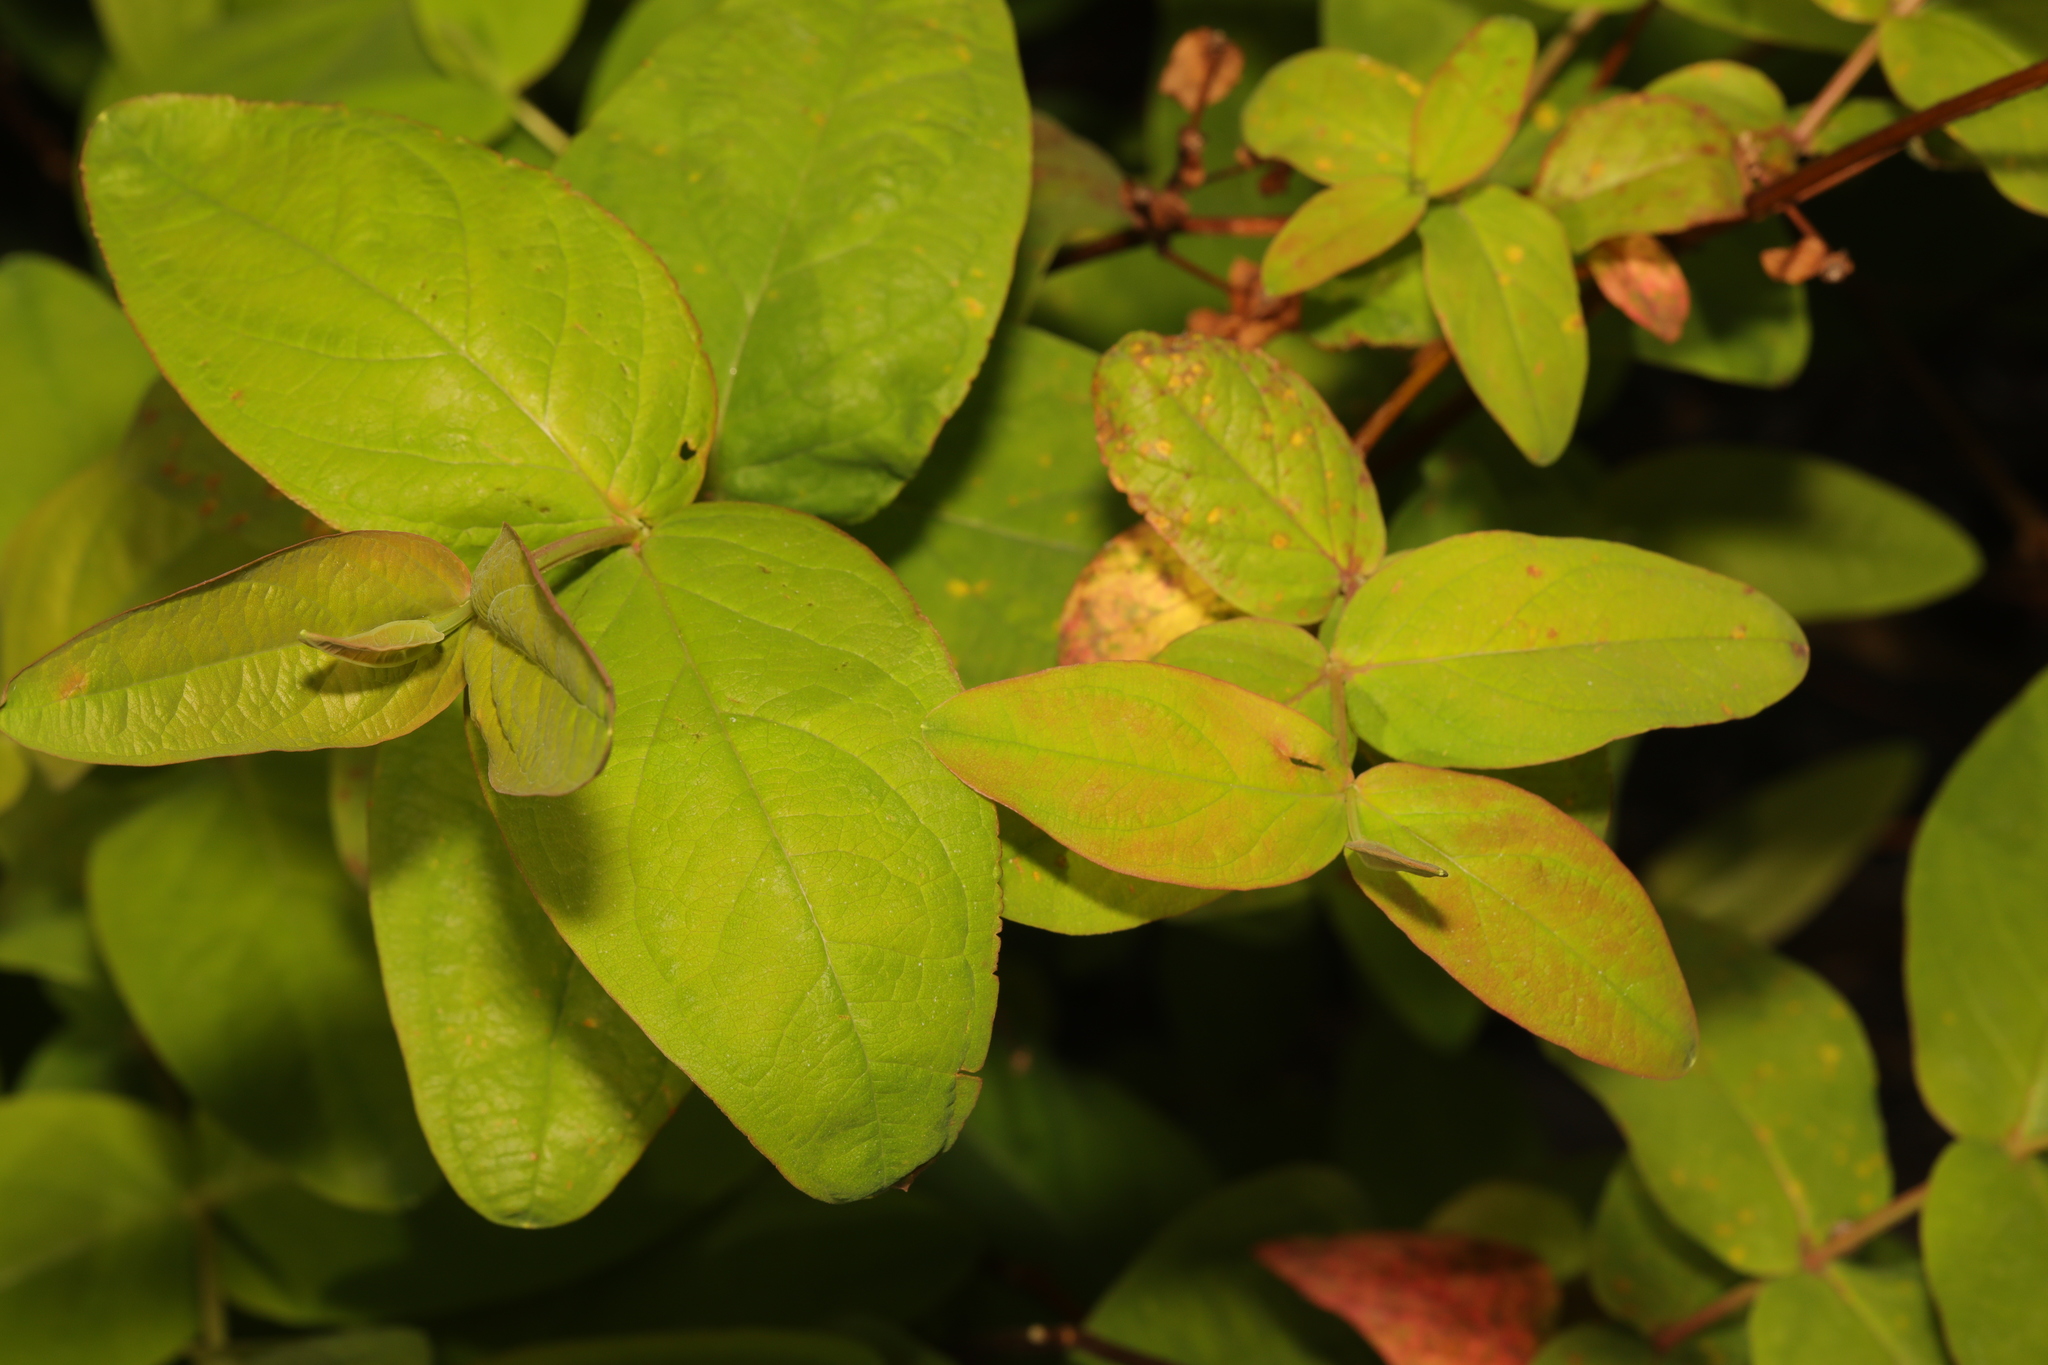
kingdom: Plantae
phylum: Tracheophyta
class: Magnoliopsida
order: Malpighiales
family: Hypericaceae
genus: Hypericum
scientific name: Hypericum androsaemum
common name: Sweet-amber
